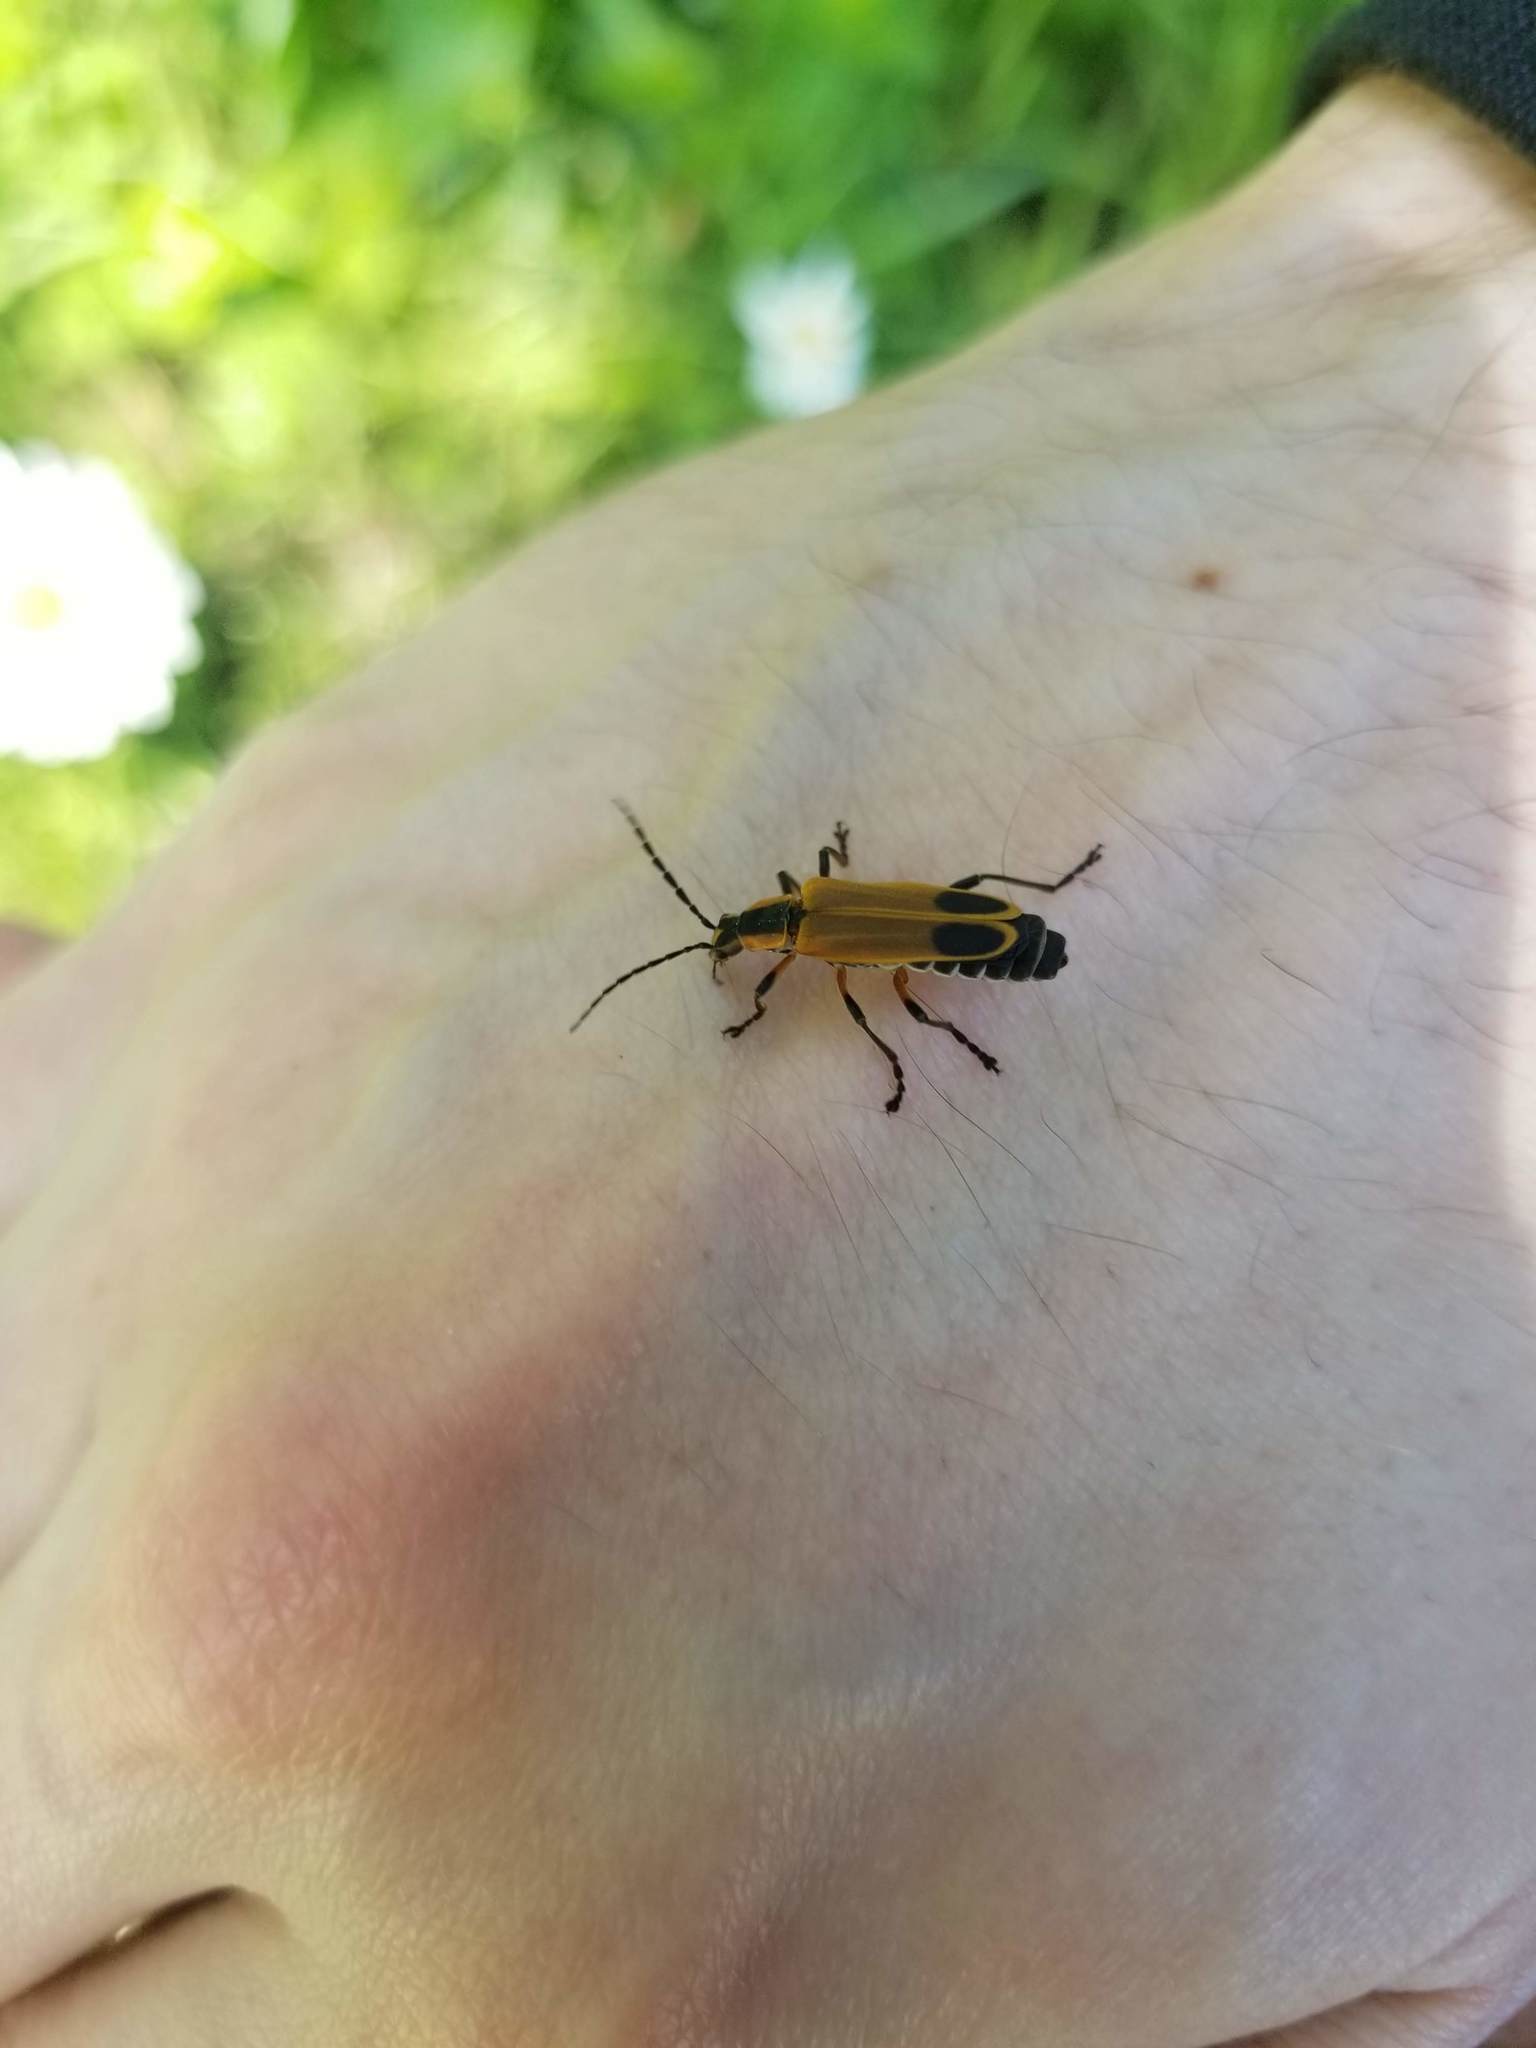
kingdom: Animalia
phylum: Arthropoda
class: Insecta
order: Coleoptera
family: Cantharidae
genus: Chauliognathus
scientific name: Chauliognathus marginatus
